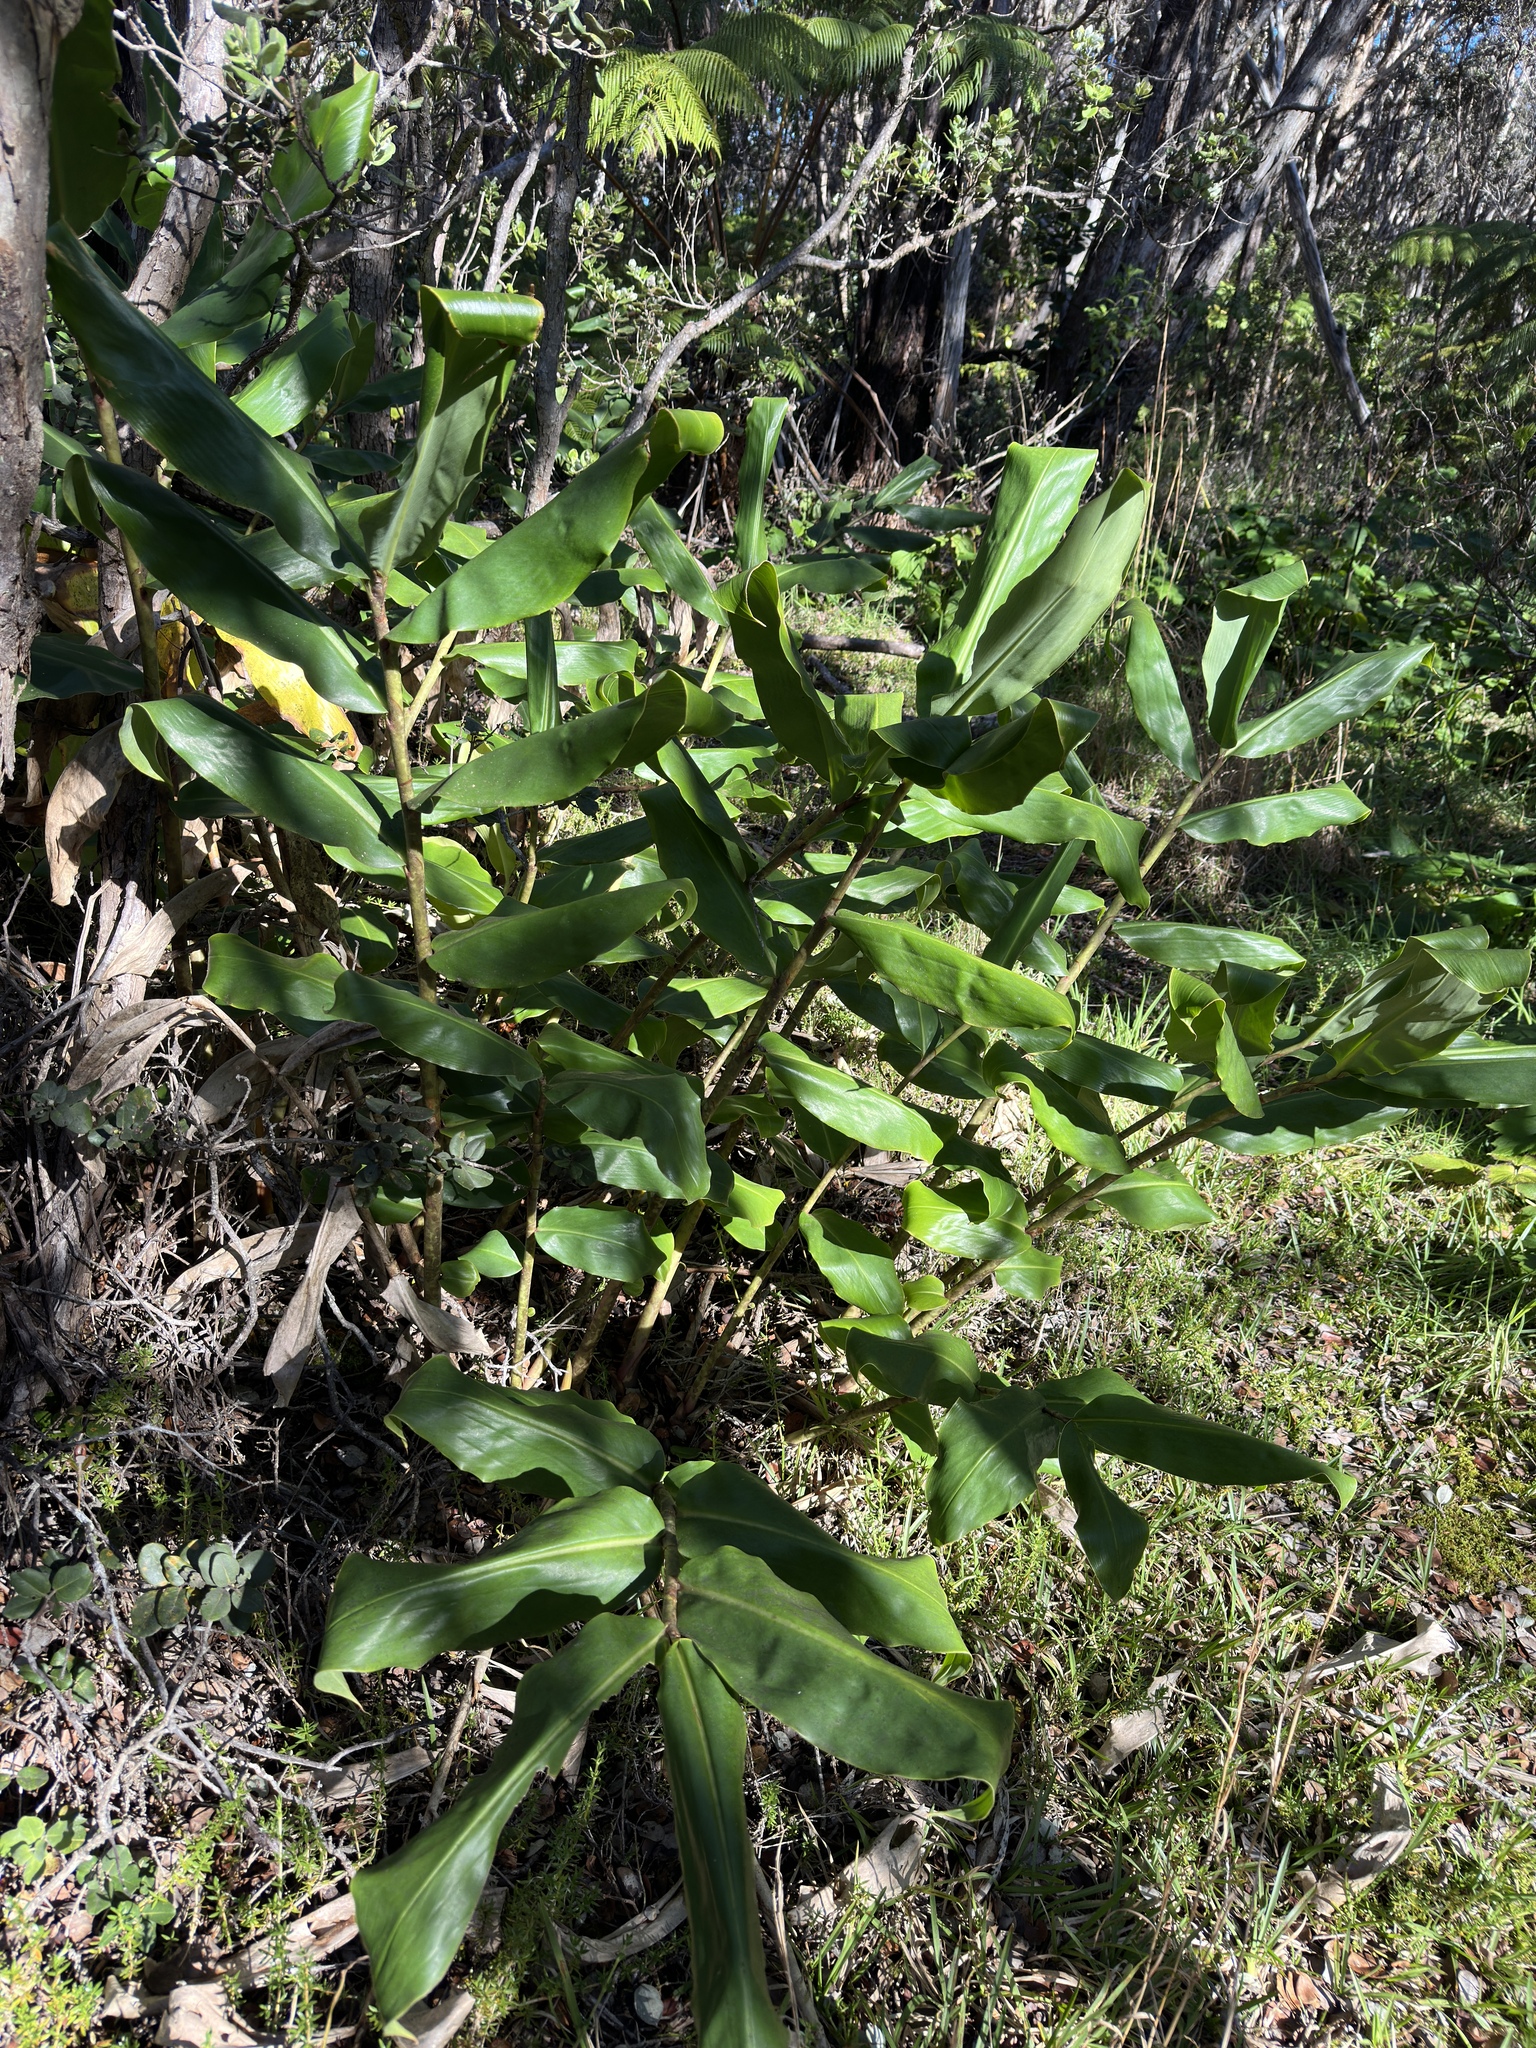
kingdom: Plantae
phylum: Tracheophyta
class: Liliopsida
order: Zingiberales
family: Zingiberaceae
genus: Hedychium
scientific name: Hedychium gardnerianum
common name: Himalayan ginger
